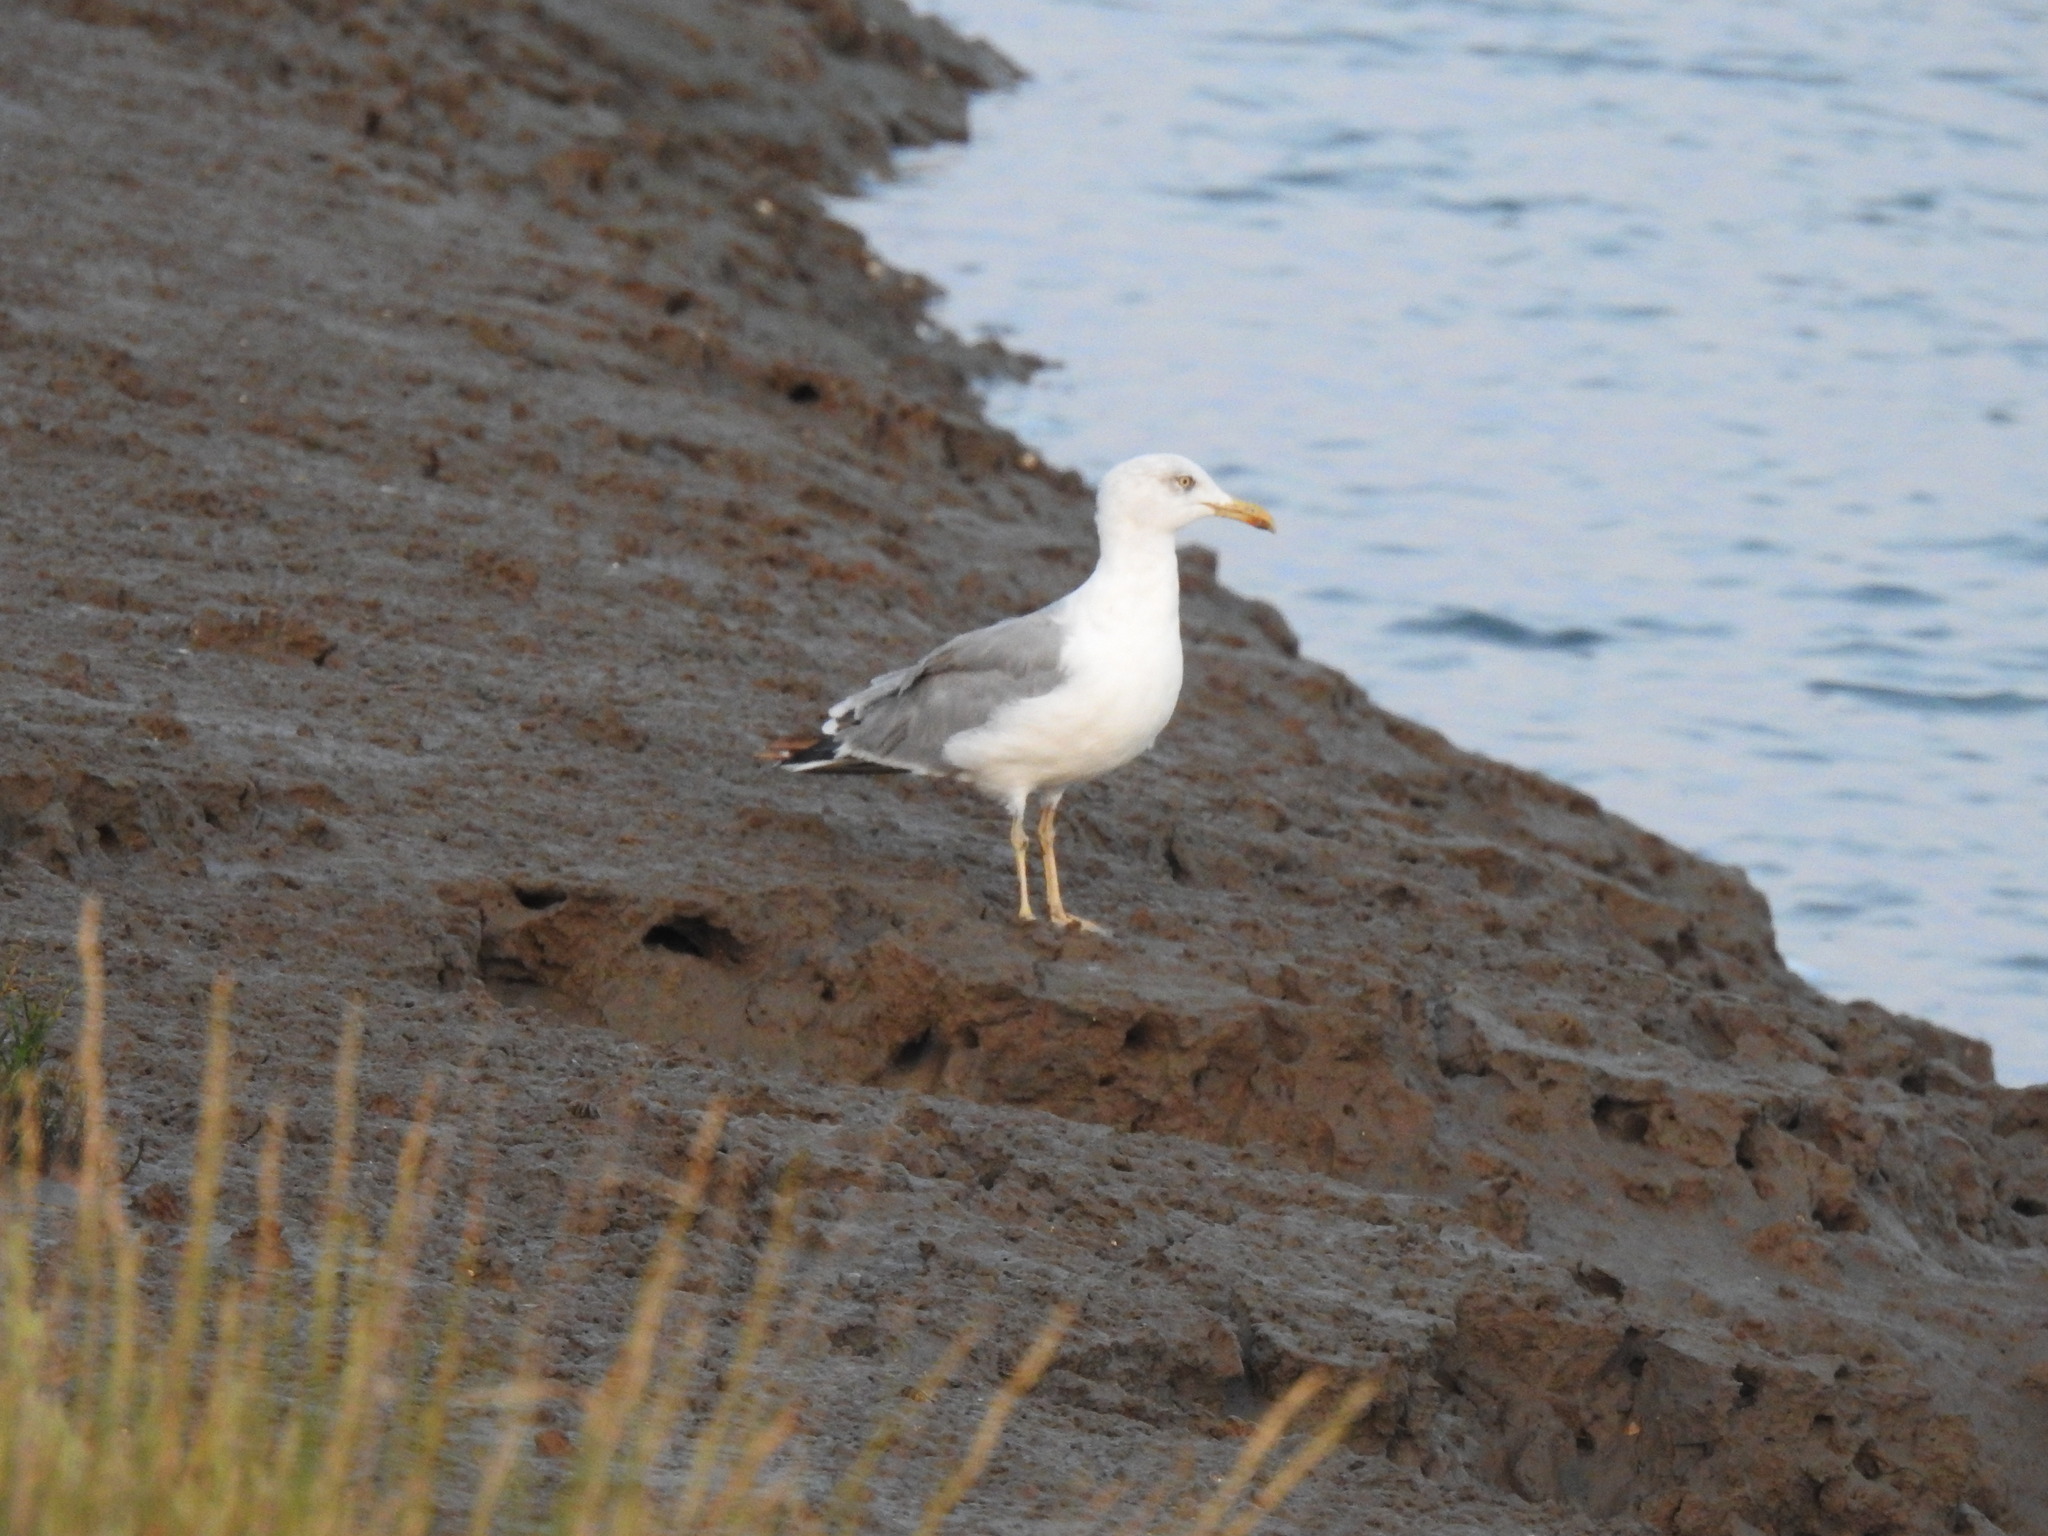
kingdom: Animalia
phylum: Chordata
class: Aves
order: Charadriiformes
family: Laridae
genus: Larus
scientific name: Larus michahellis
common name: Yellow-legged gull
